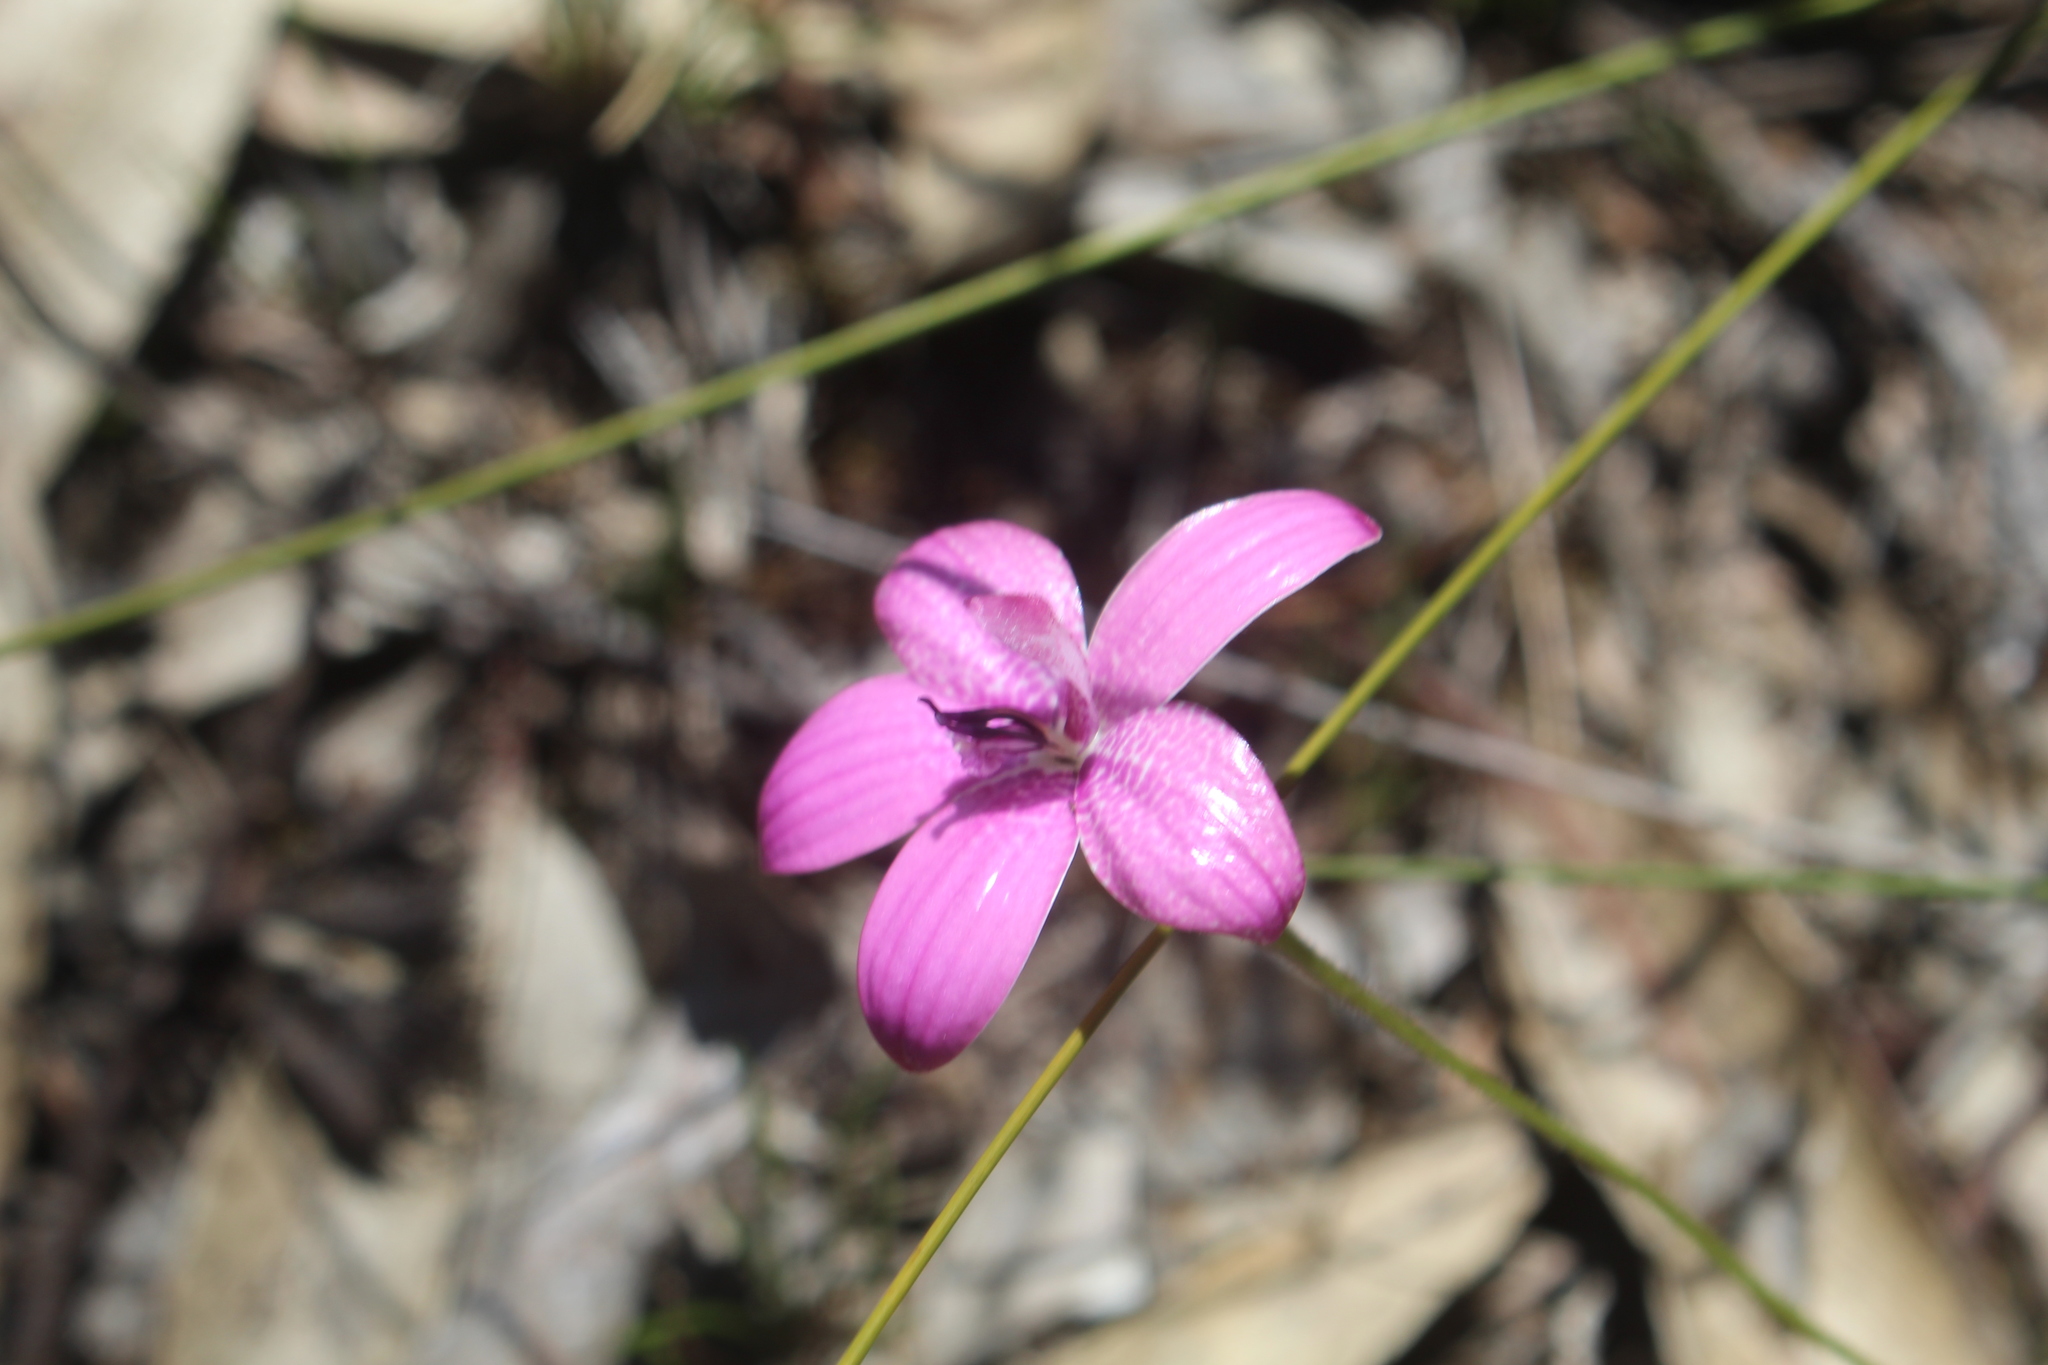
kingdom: Plantae
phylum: Tracheophyta
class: Liliopsida
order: Asparagales
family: Orchidaceae
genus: Caladenia
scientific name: Caladenia emarginata
